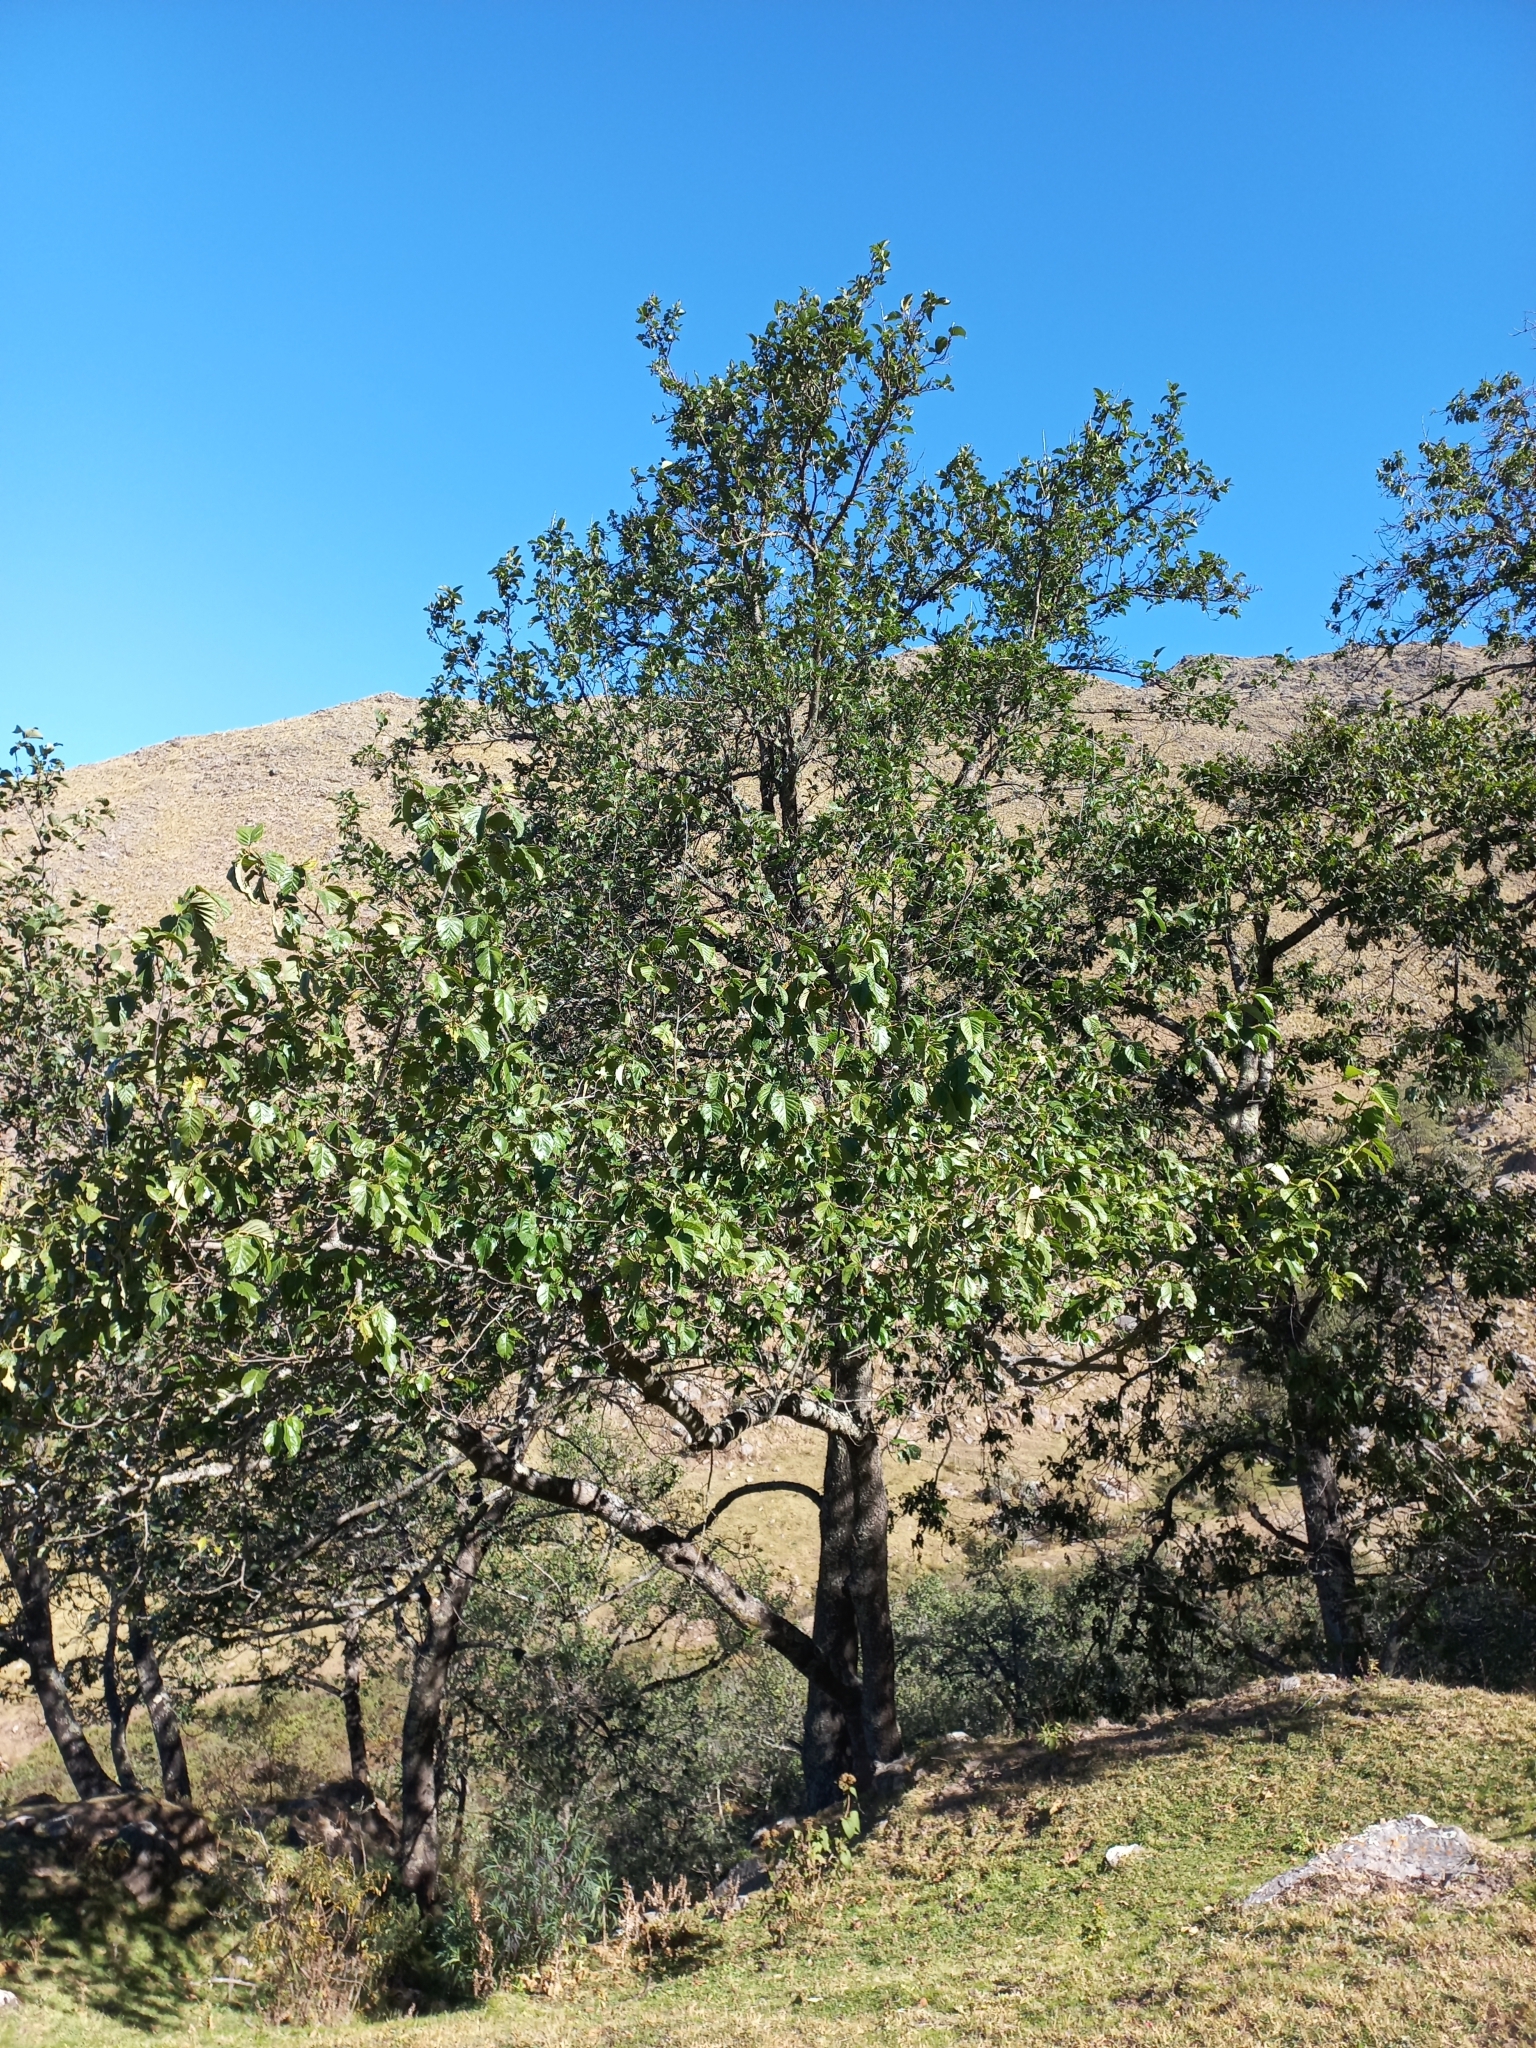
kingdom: Plantae
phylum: Tracheophyta
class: Magnoliopsida
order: Fagales
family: Betulaceae
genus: Alnus
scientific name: Alnus acuminata
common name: Alder
